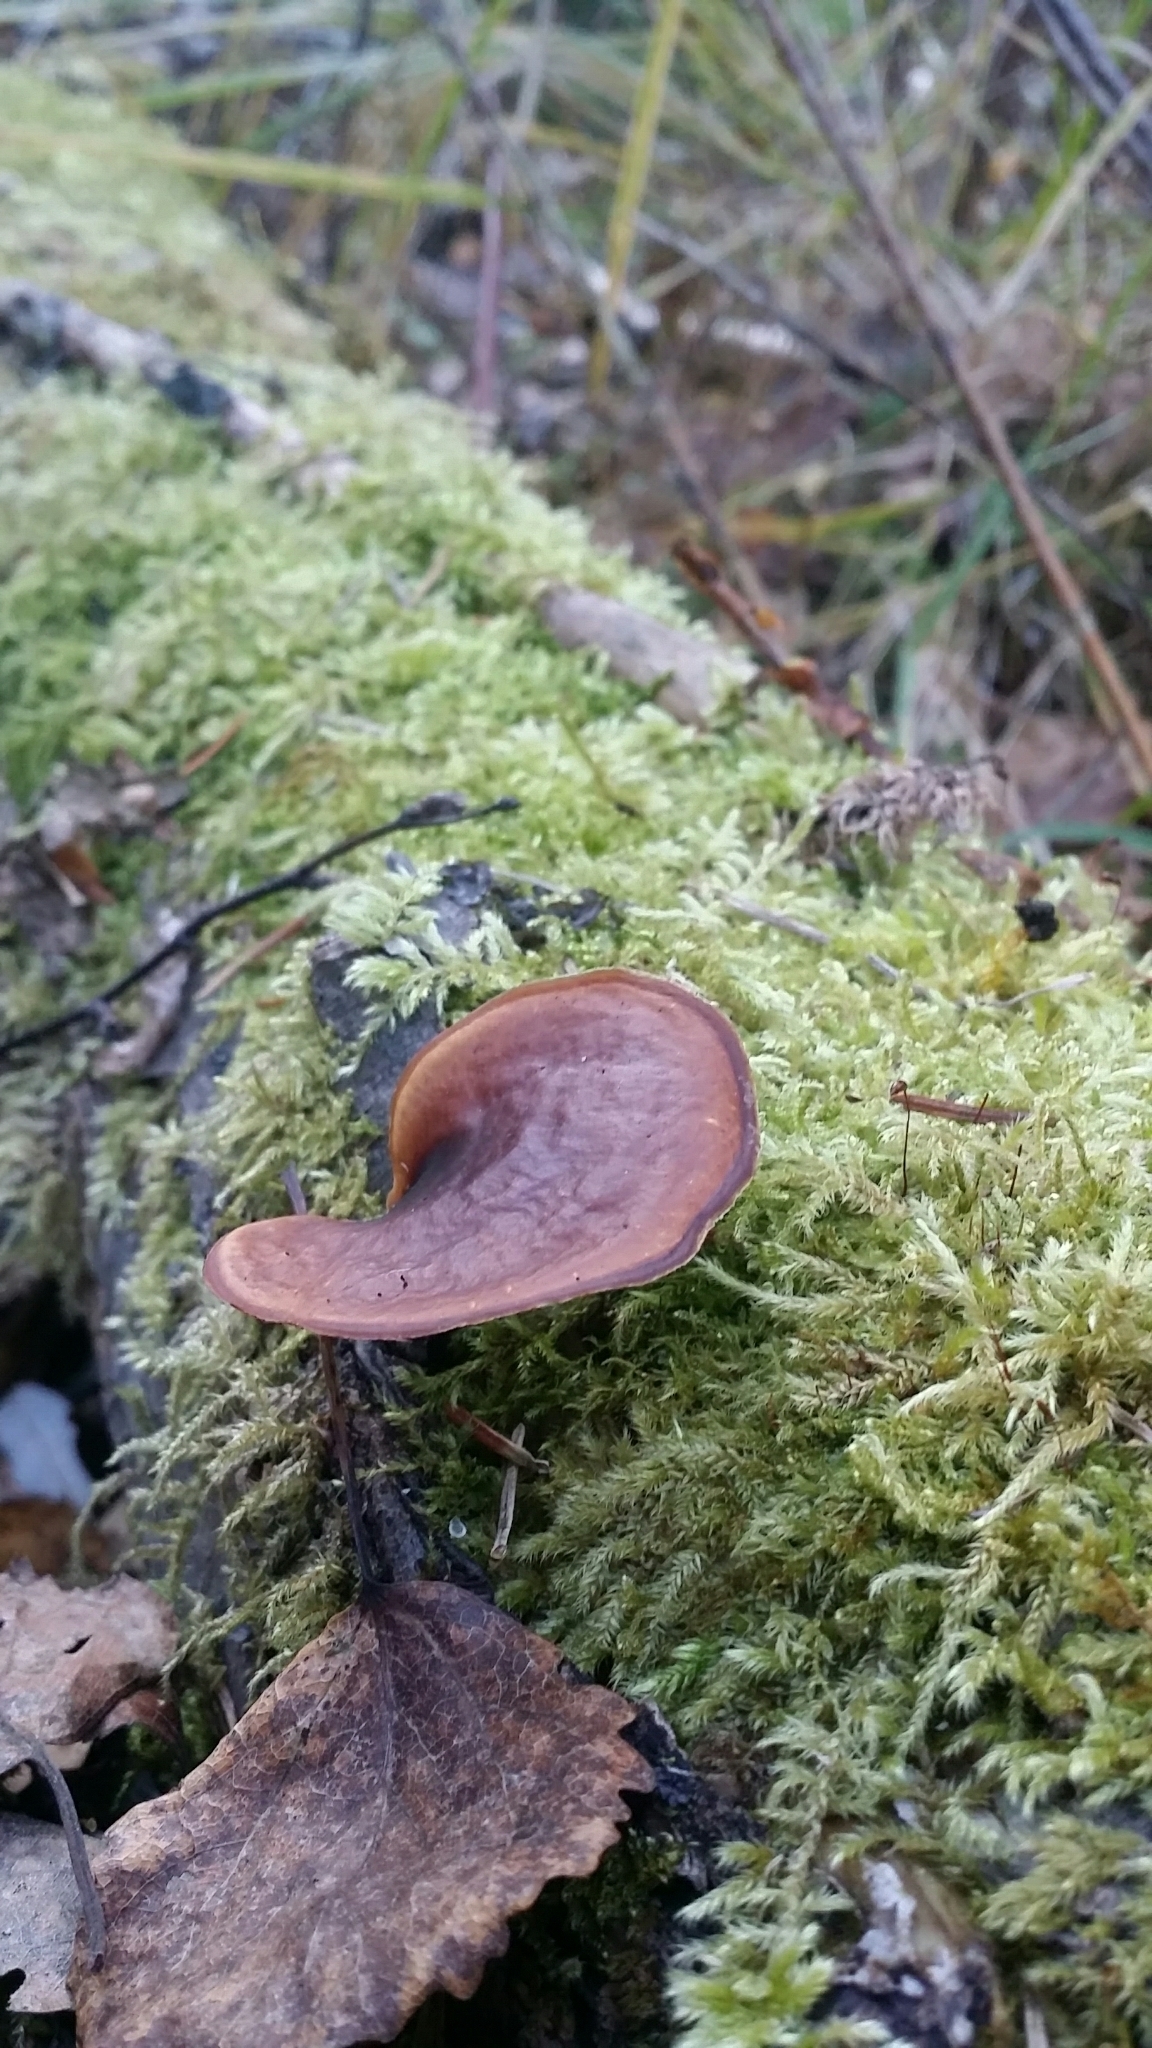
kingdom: Fungi
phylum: Basidiomycota
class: Agaricomycetes
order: Polyporales
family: Polyporaceae
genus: Picipes
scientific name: Picipes melanopus
